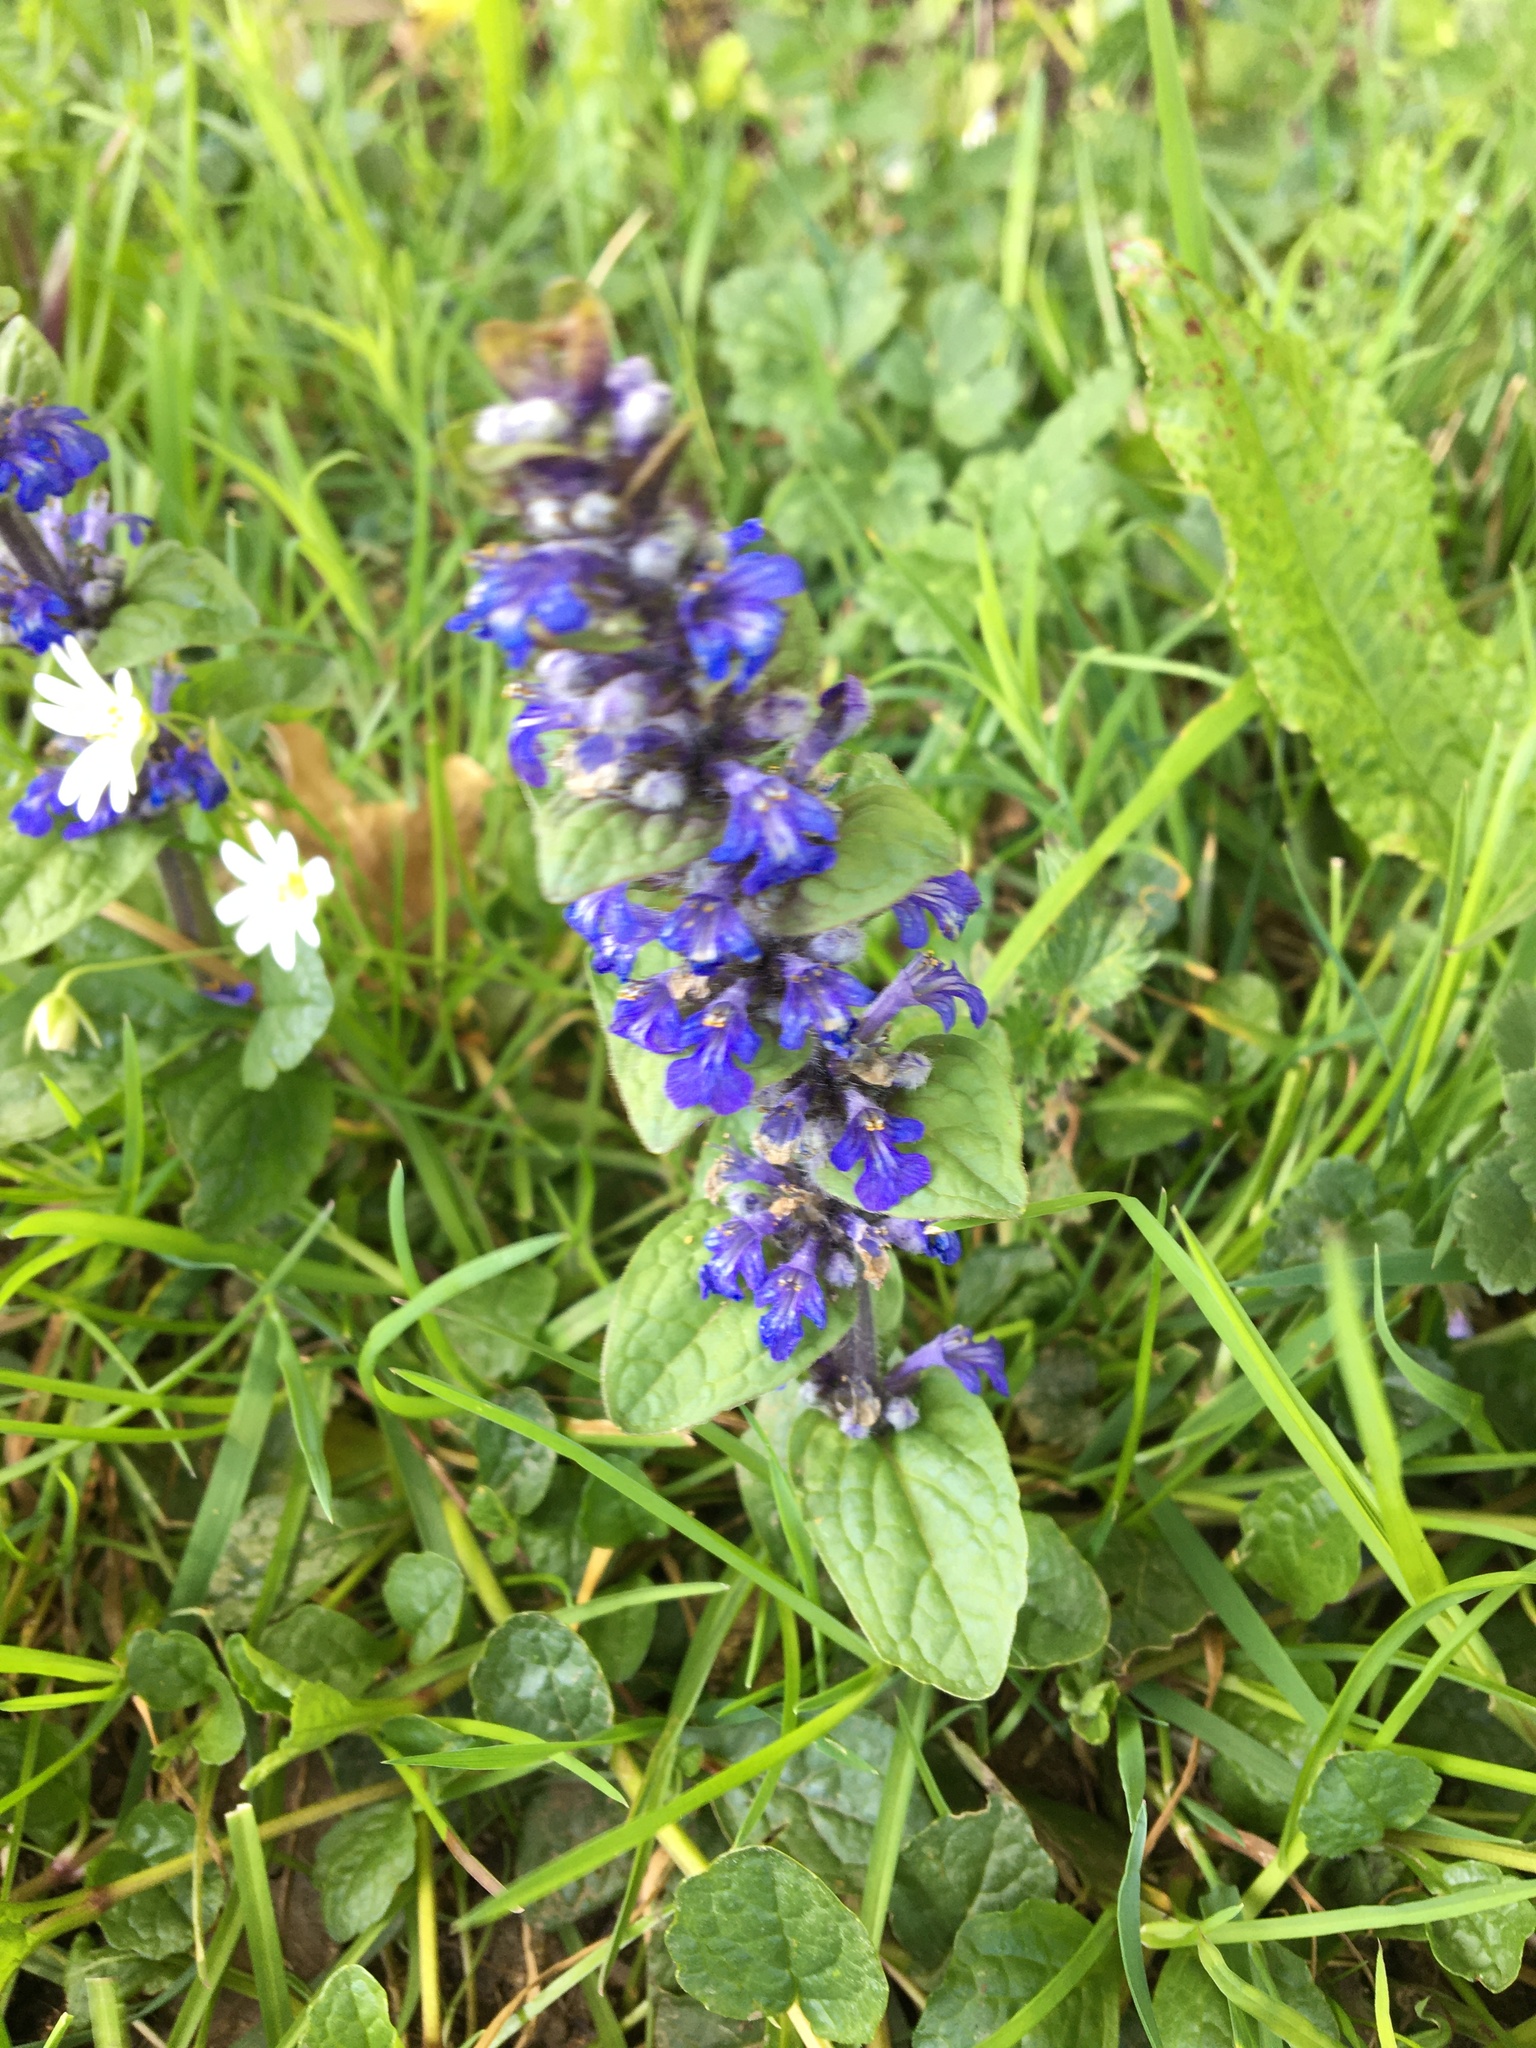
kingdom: Plantae
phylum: Tracheophyta
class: Magnoliopsida
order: Lamiales
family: Lamiaceae
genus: Ajuga
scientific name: Ajuga reptans
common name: Bugle
